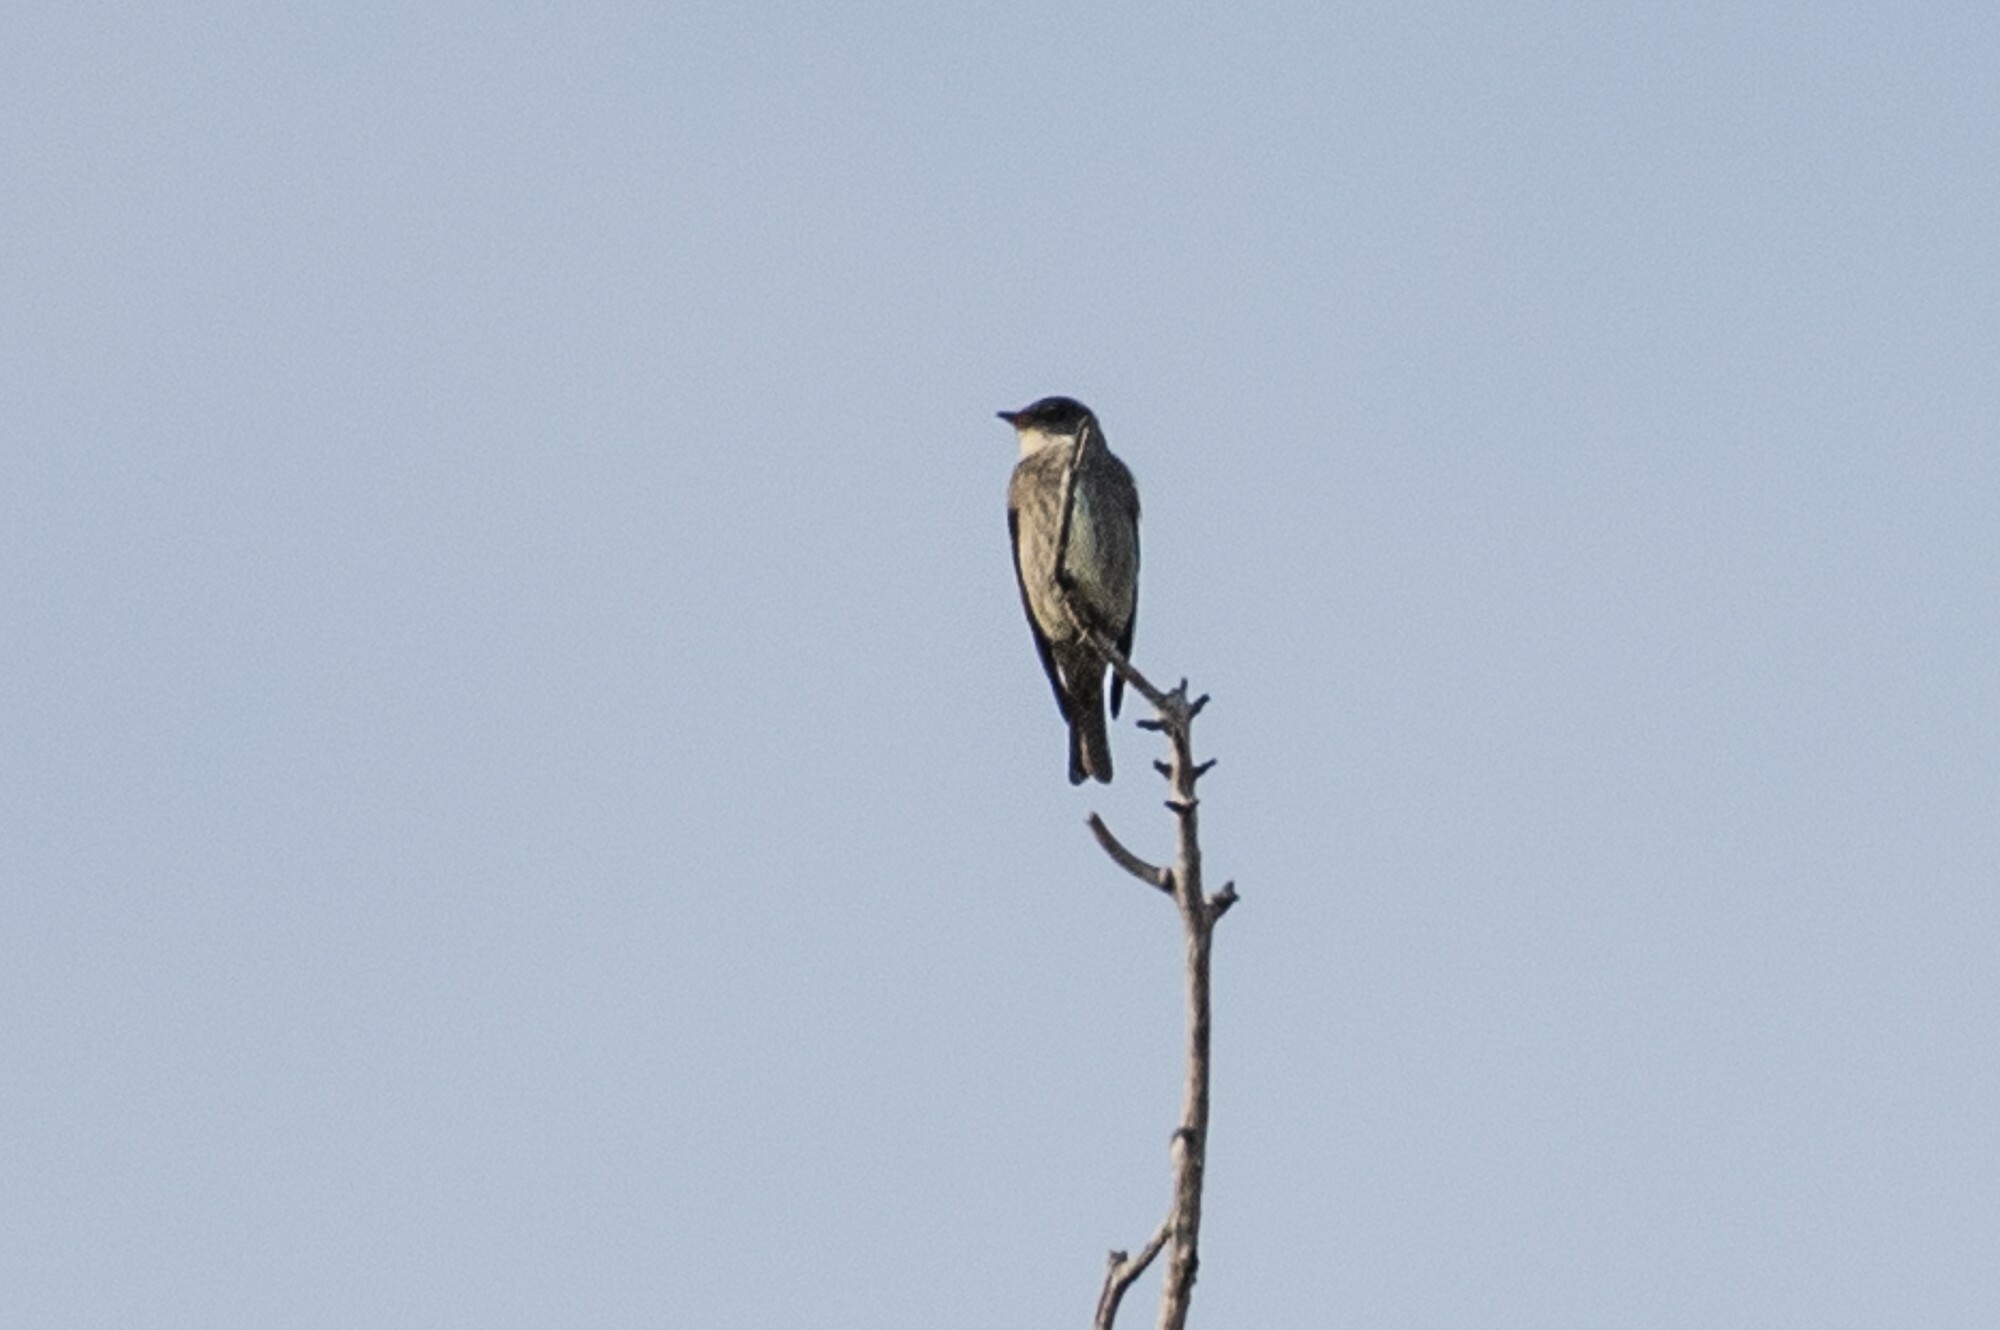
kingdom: Animalia
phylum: Chordata
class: Aves
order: Passeriformes
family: Tyrannidae
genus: Contopus
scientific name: Contopus cooperi
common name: Olive-sided flycatcher
